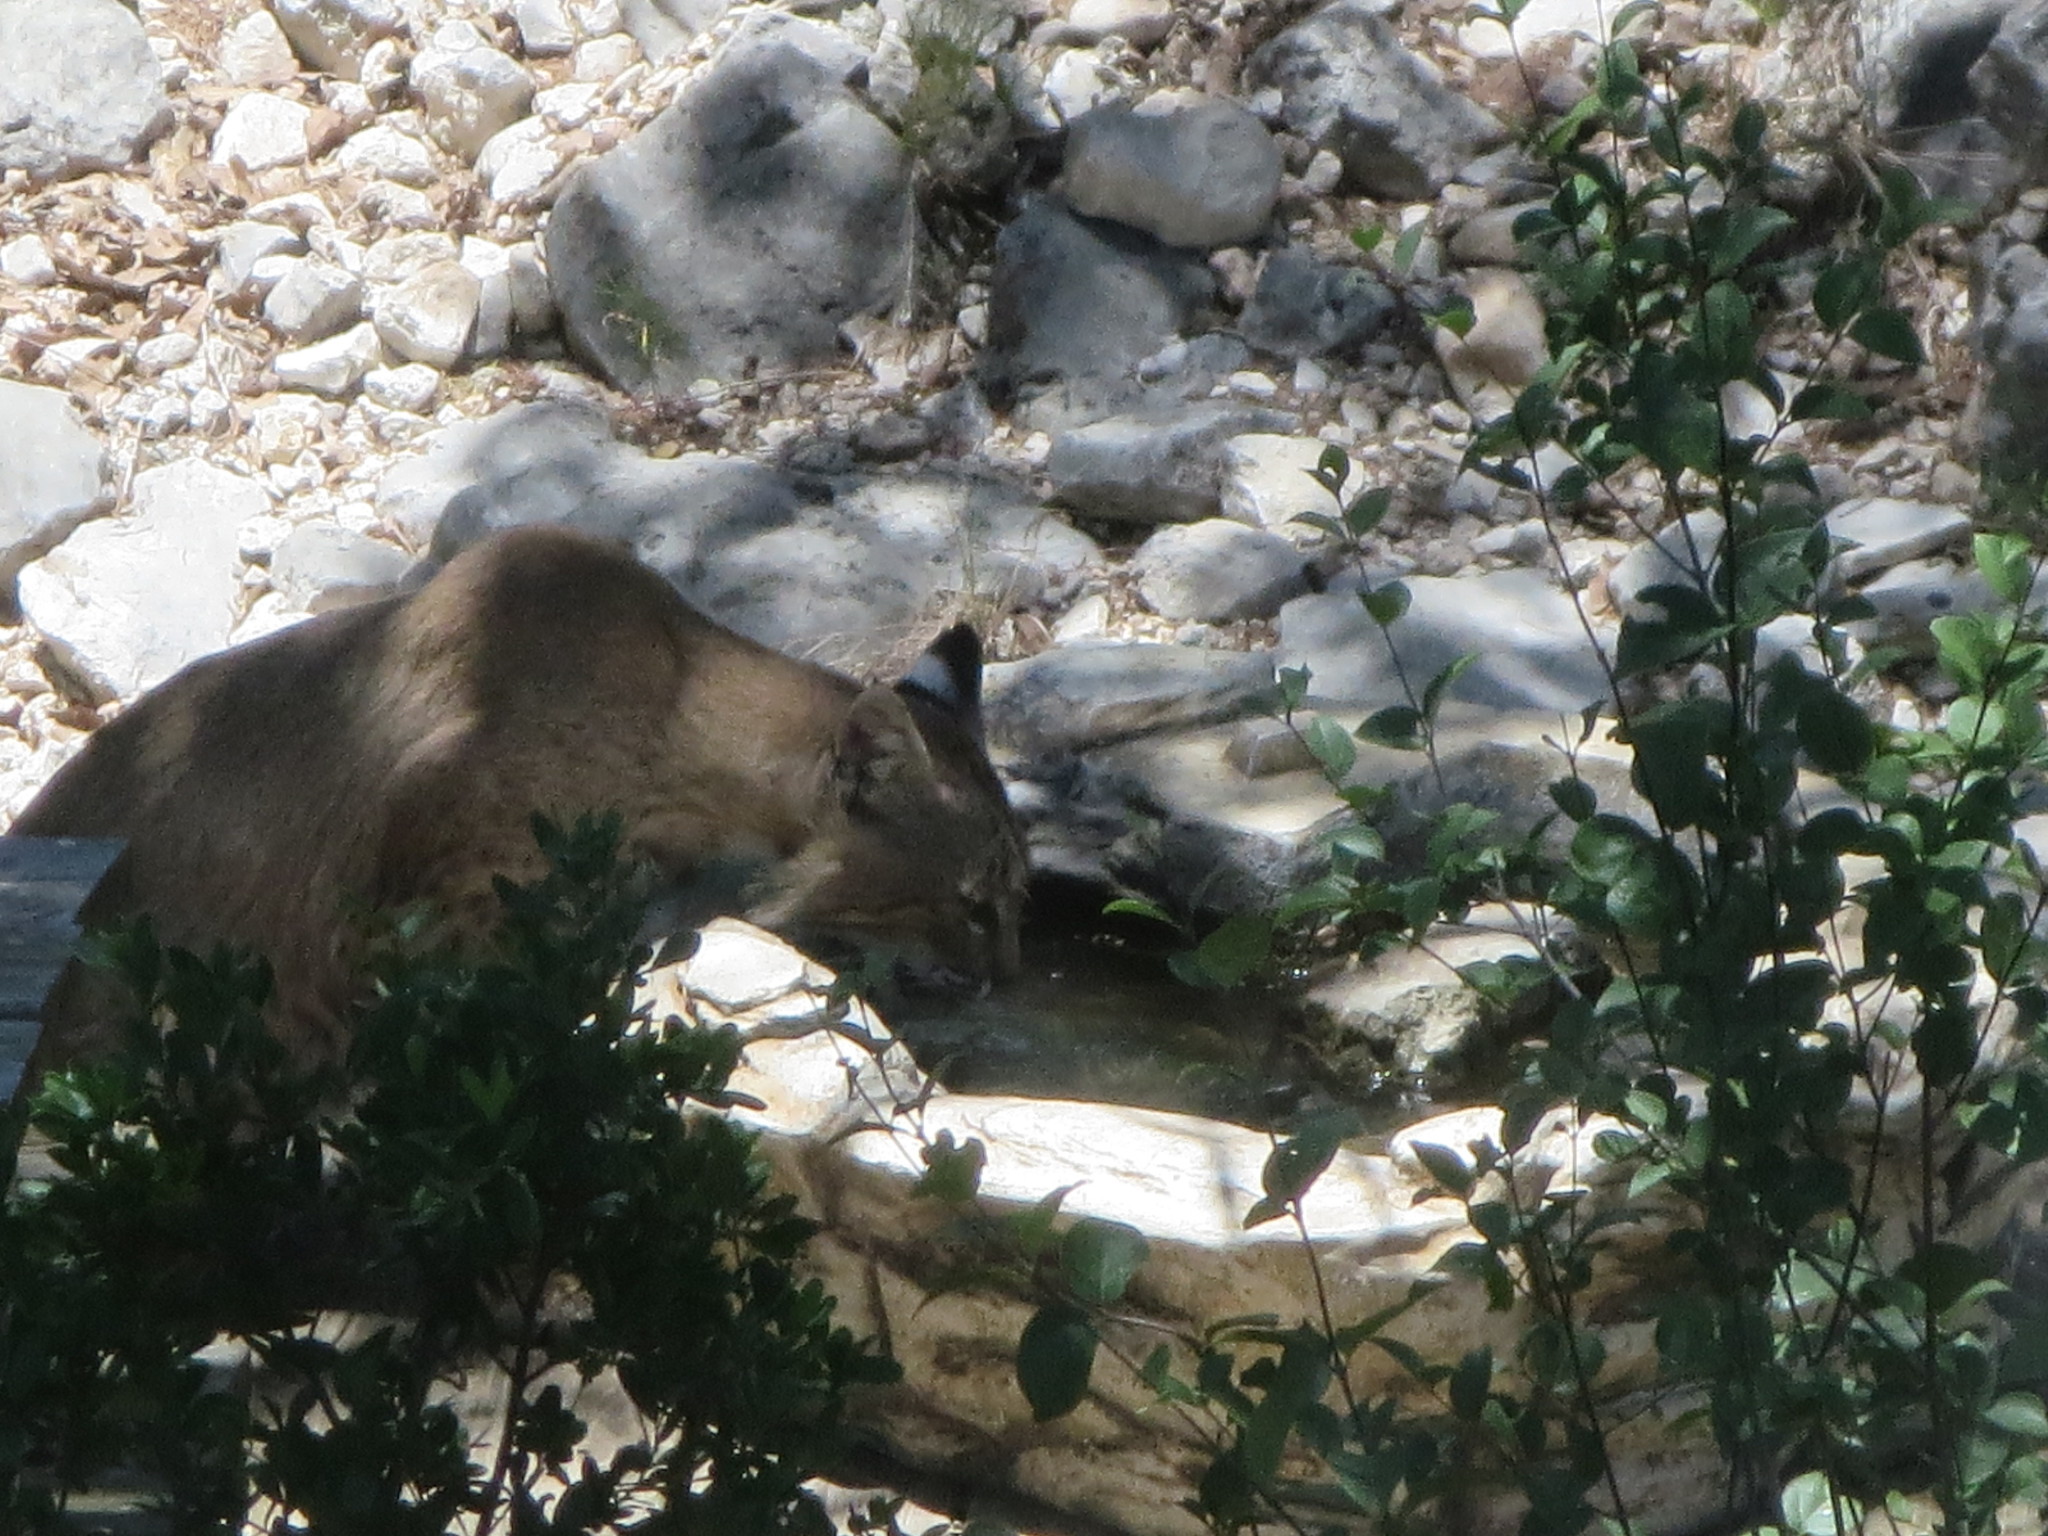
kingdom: Animalia
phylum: Chordata
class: Mammalia
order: Carnivora
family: Felidae
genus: Lynx
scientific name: Lynx rufus
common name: Bobcat
